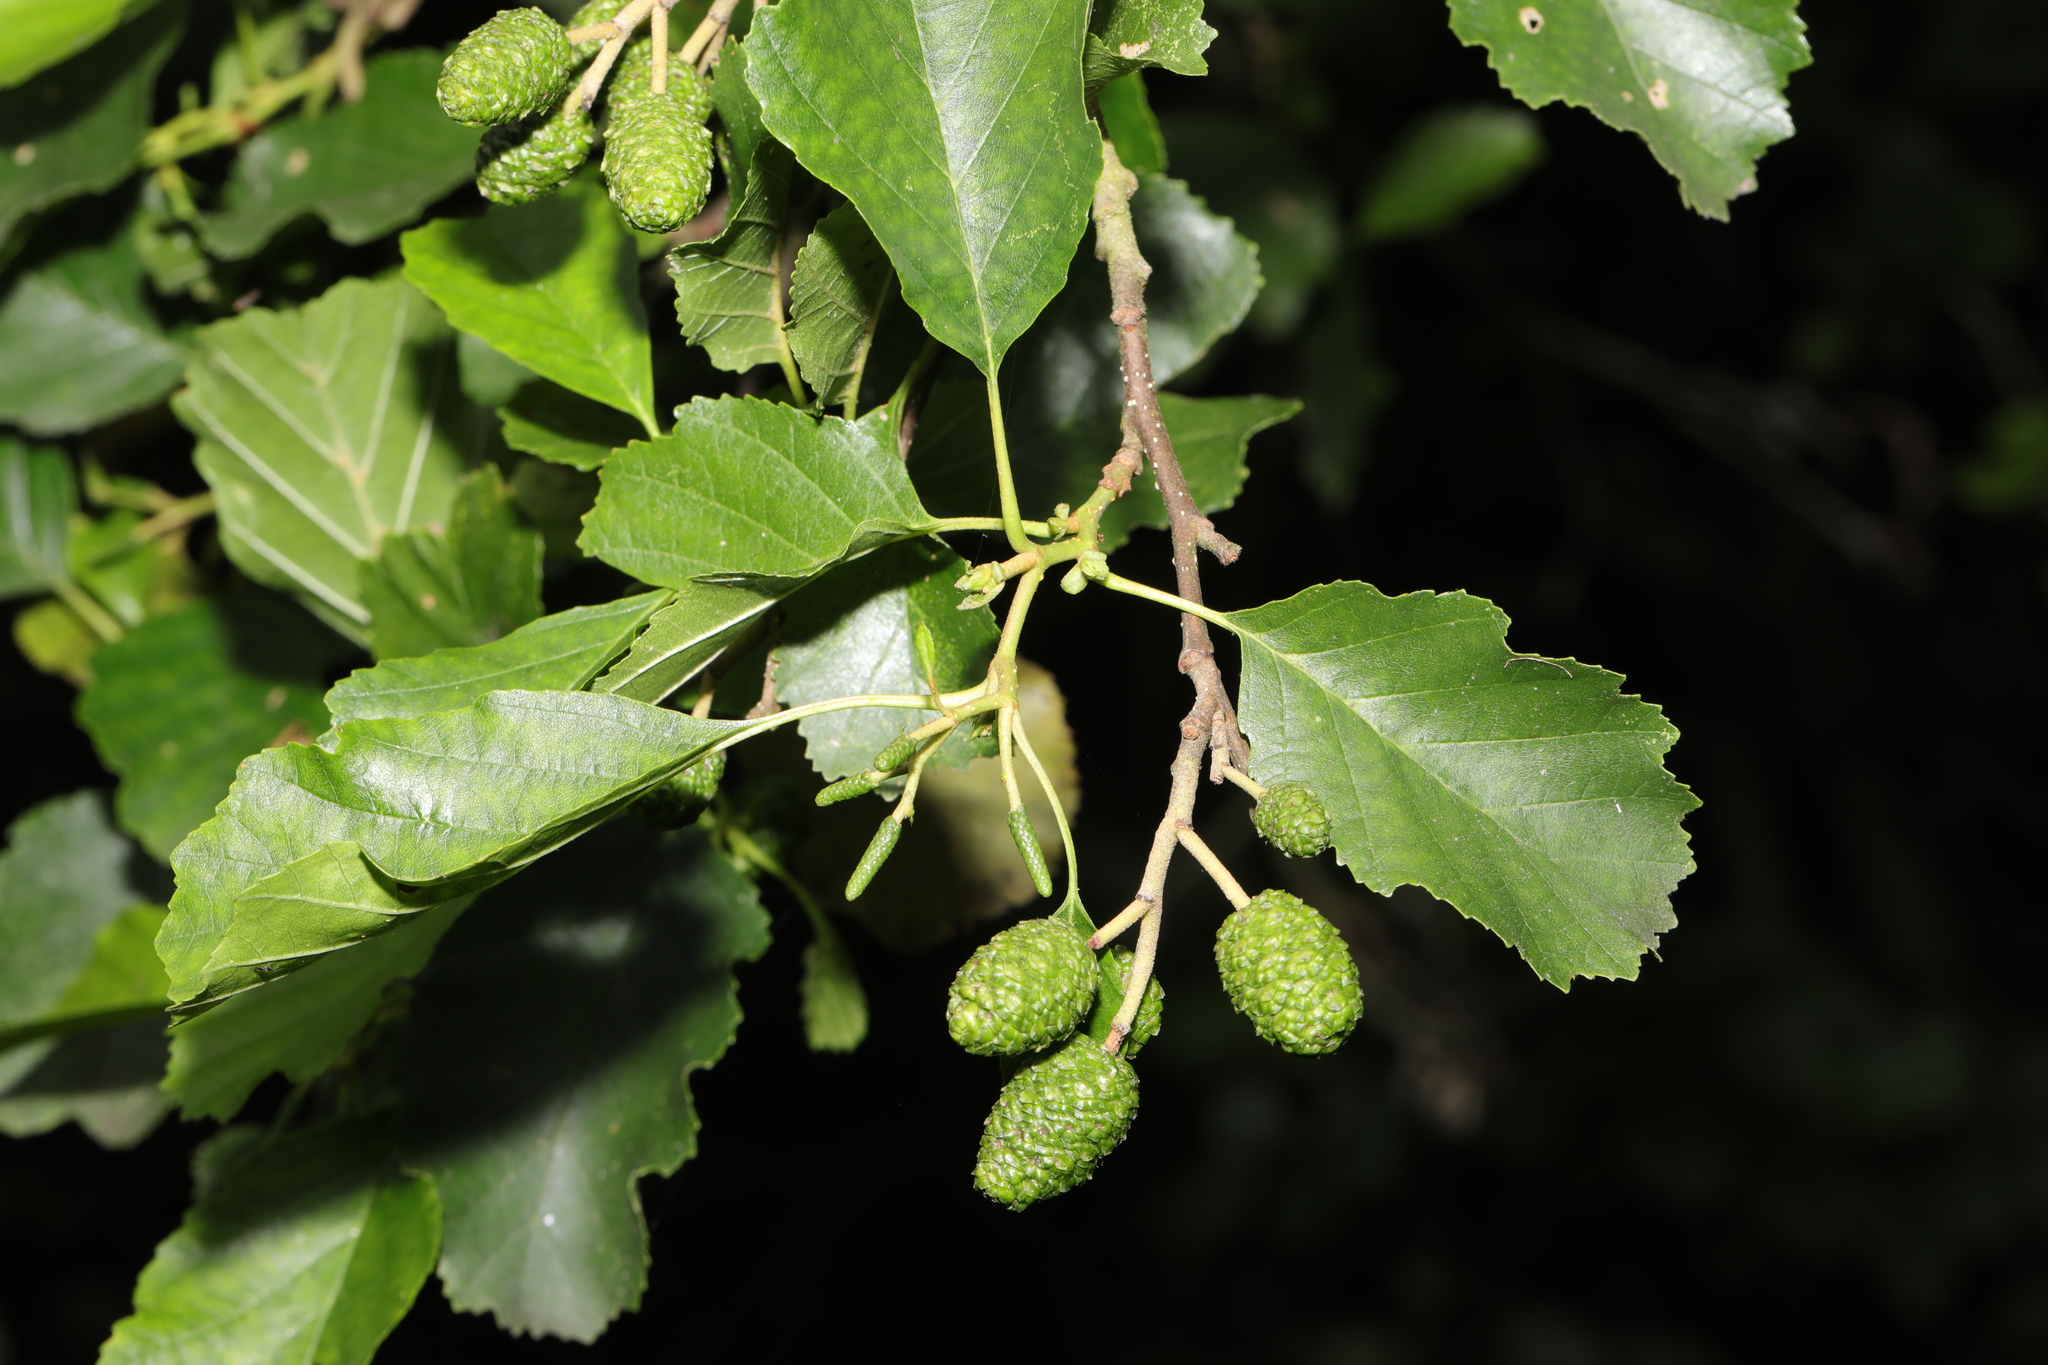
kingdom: Plantae
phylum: Tracheophyta
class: Magnoliopsida
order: Fagales
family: Betulaceae
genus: Alnus
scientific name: Alnus glutinosa
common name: Black alder
